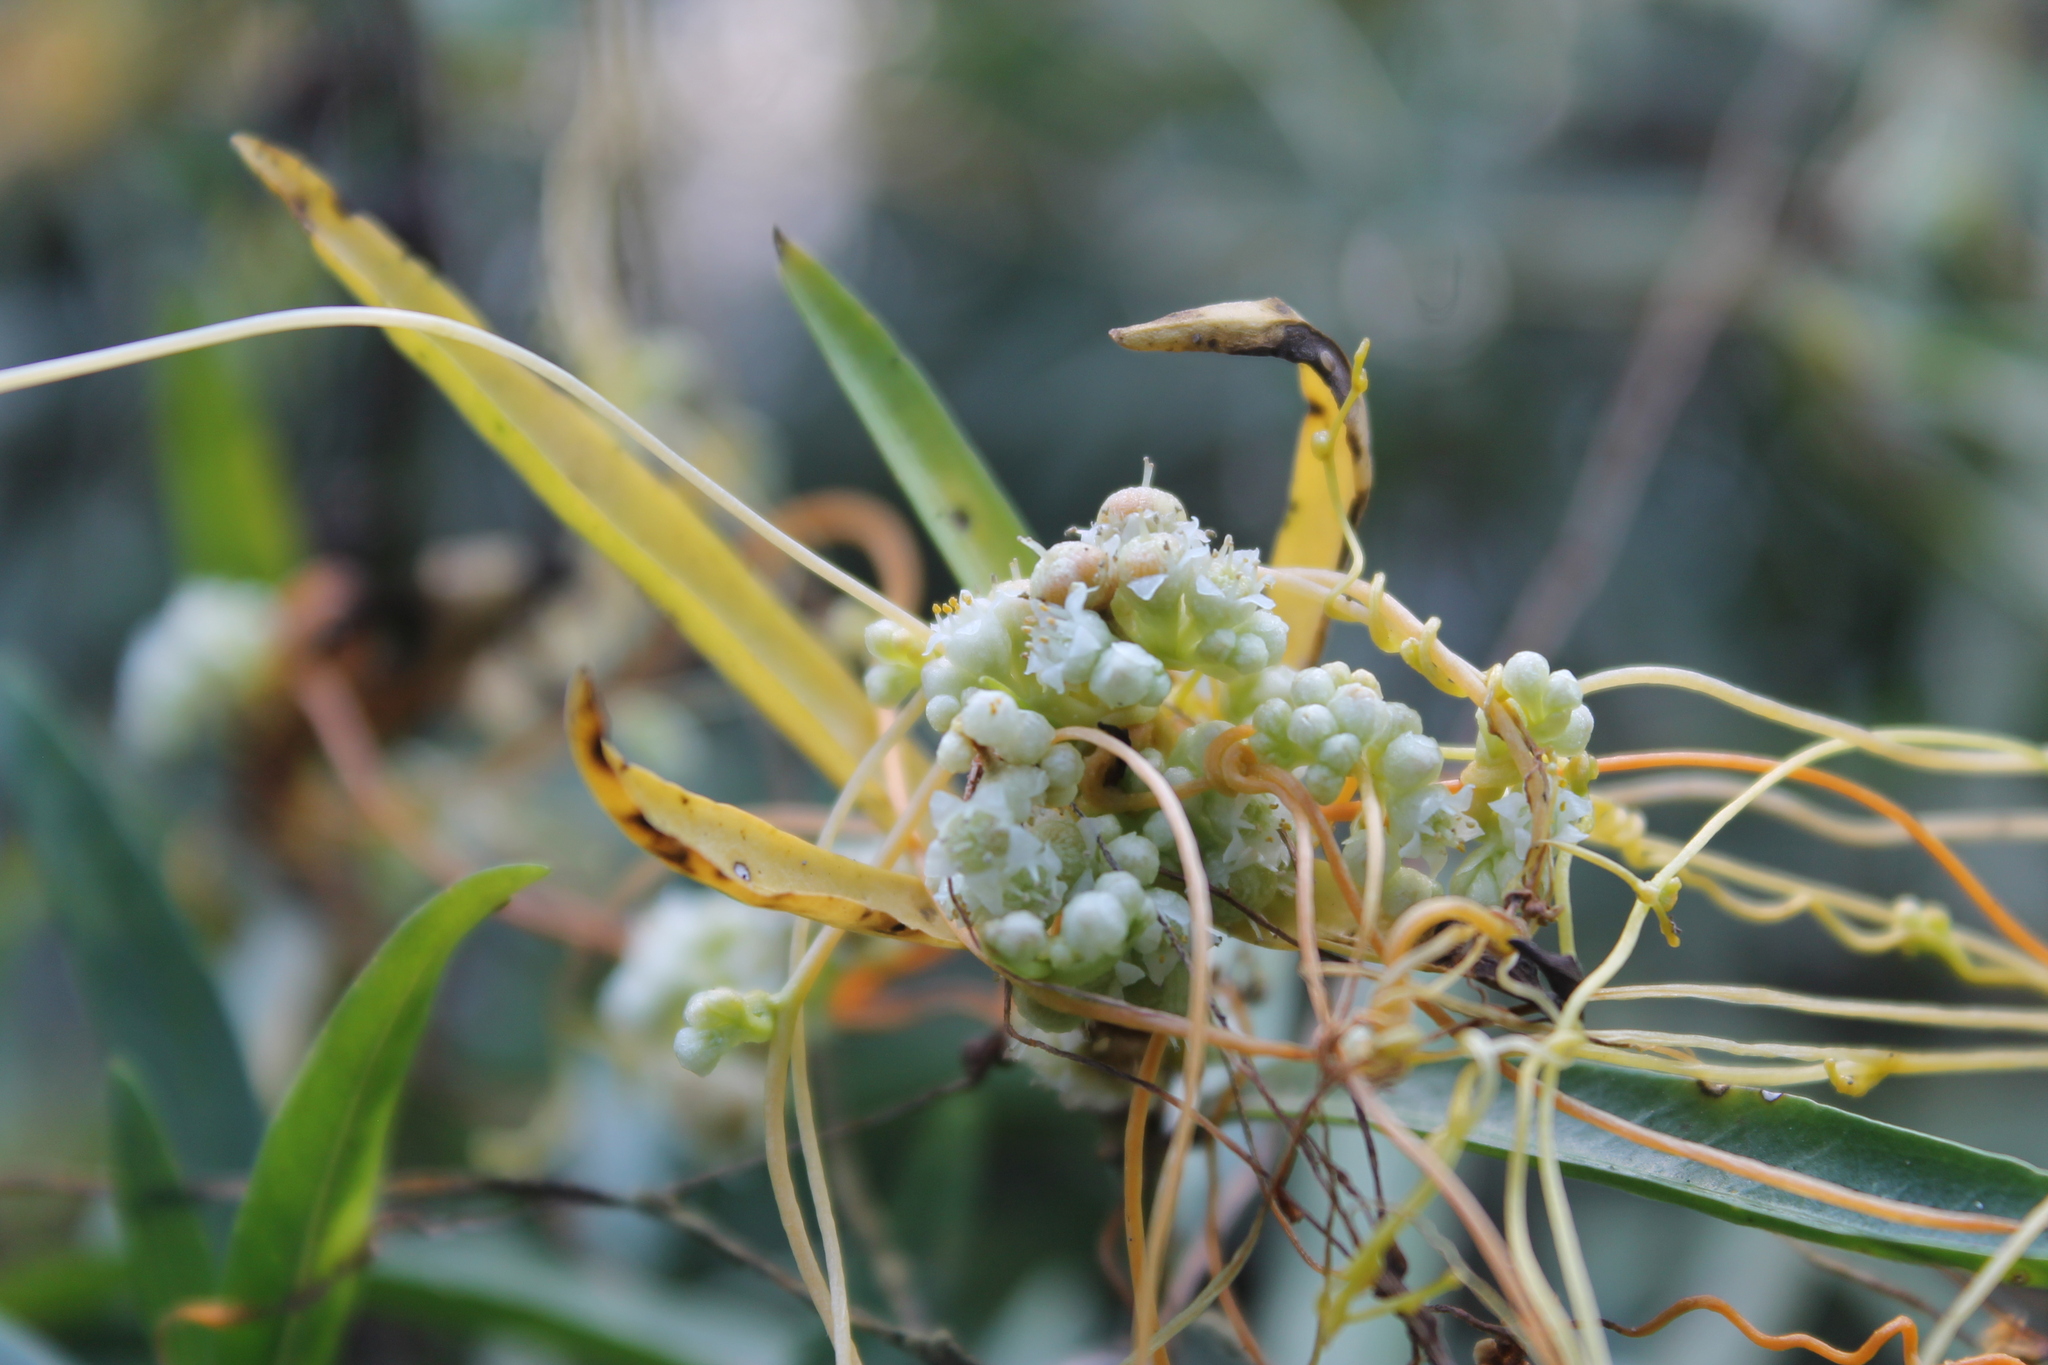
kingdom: Plantae
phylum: Tracheophyta
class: Magnoliopsida
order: Solanales
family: Convolvulaceae
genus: Cuscuta
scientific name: Cuscuta pentagona
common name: Fiveangled dodder
